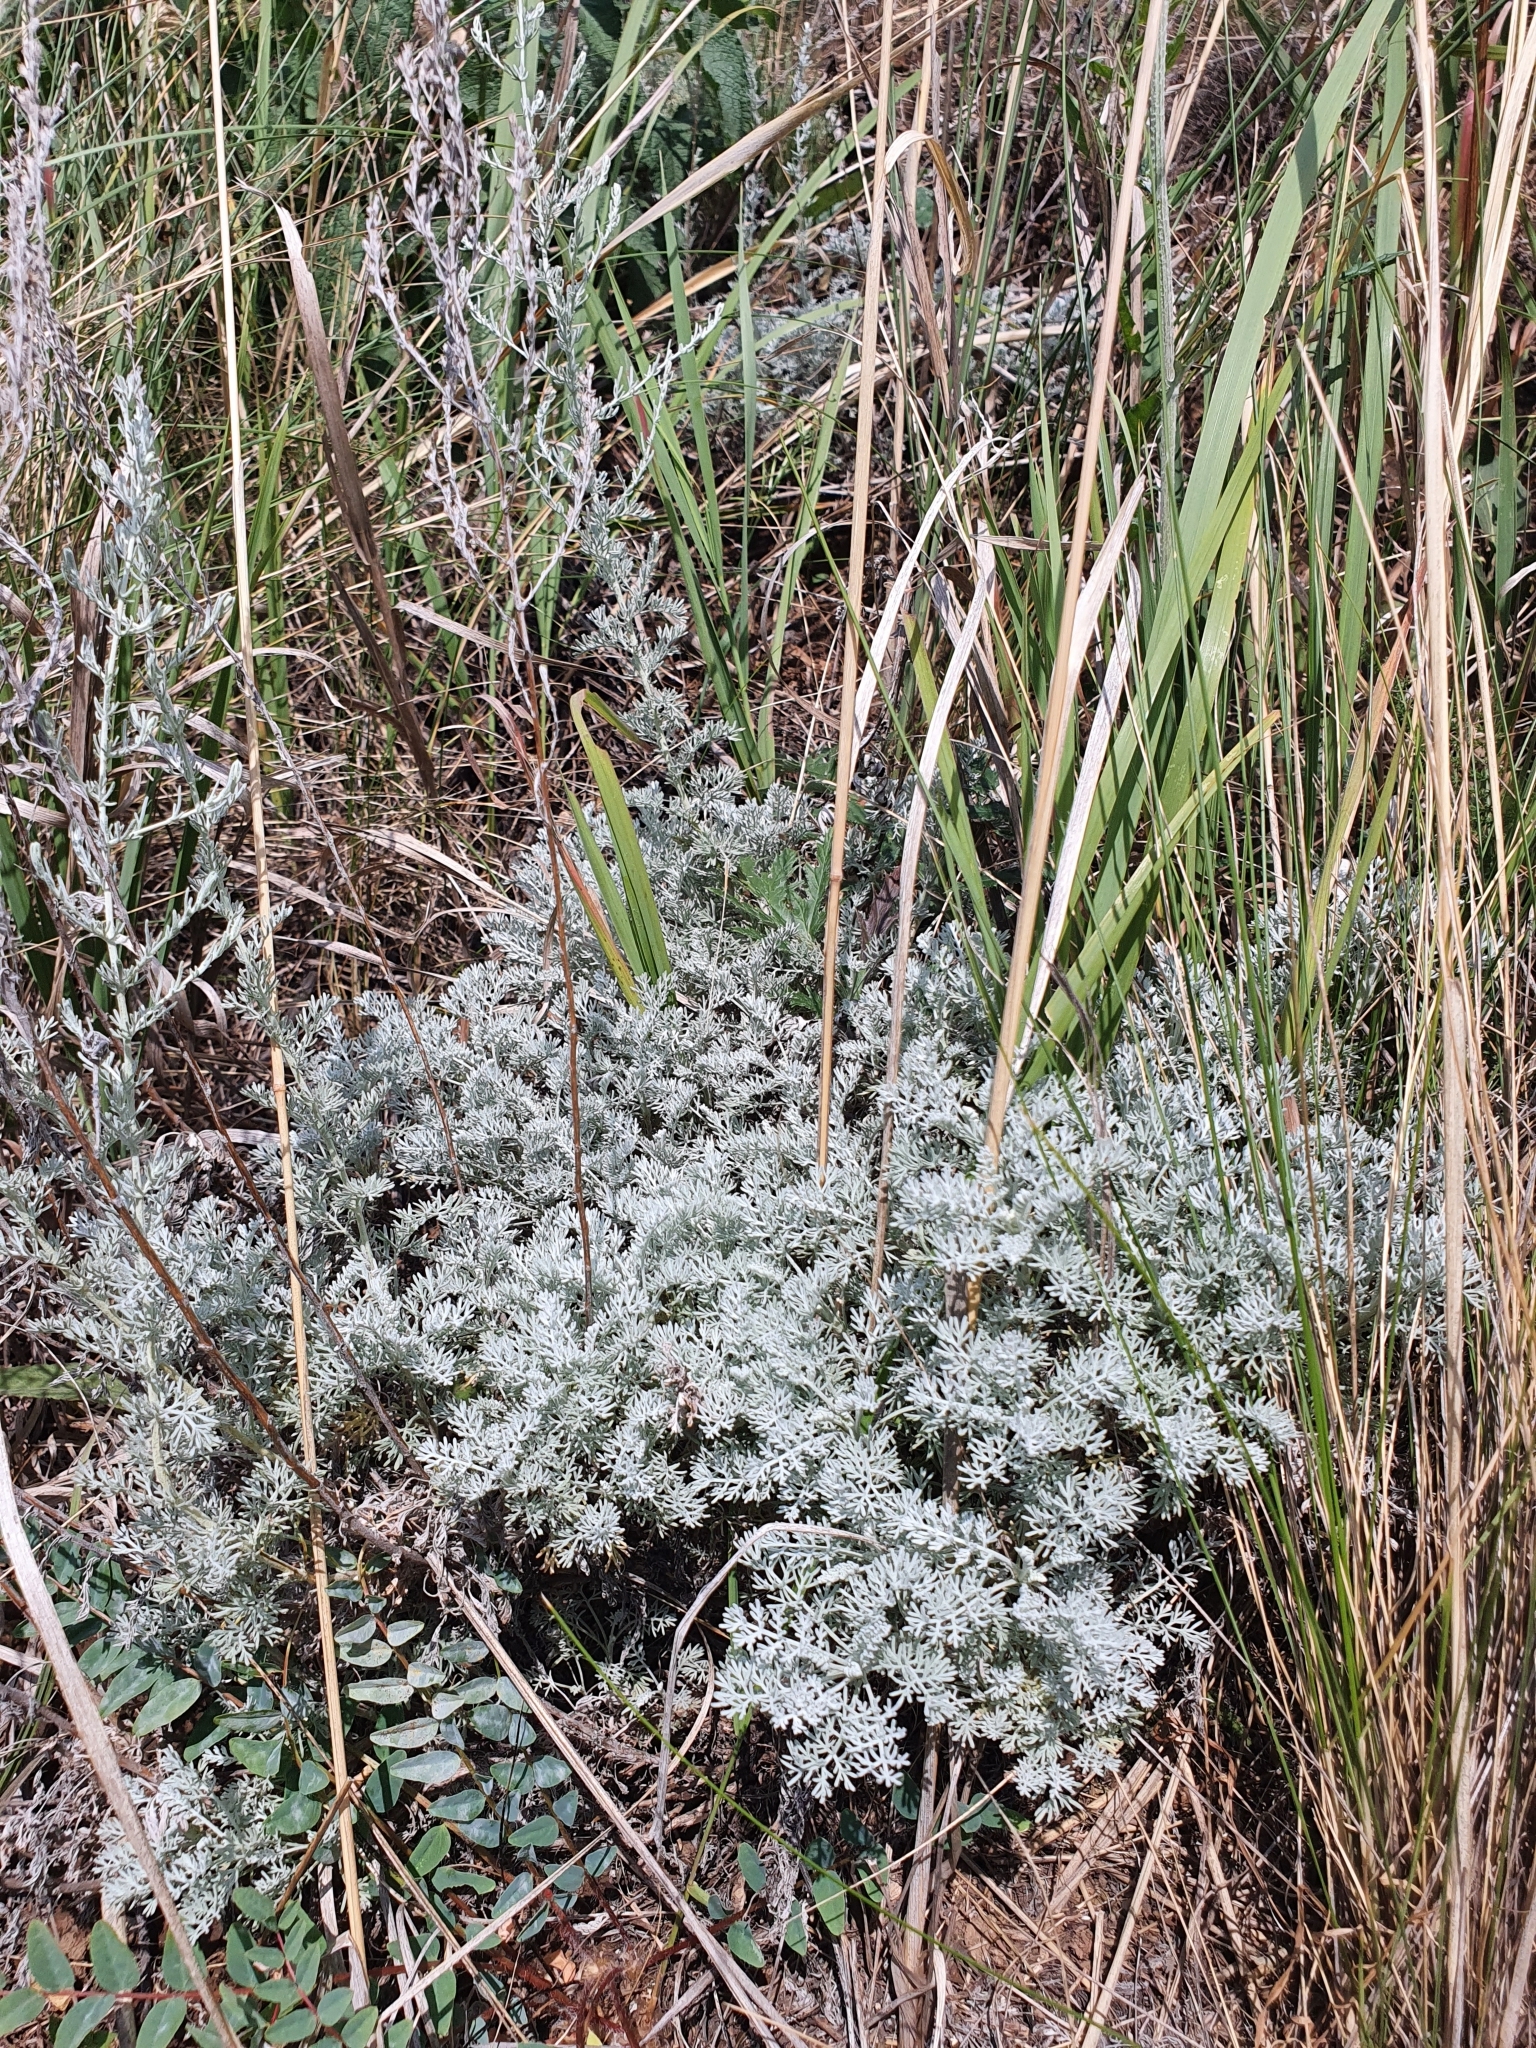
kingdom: Plantae
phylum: Tracheophyta
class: Magnoliopsida
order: Asterales
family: Asteraceae
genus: Artemisia
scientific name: Artemisia nitrosa
